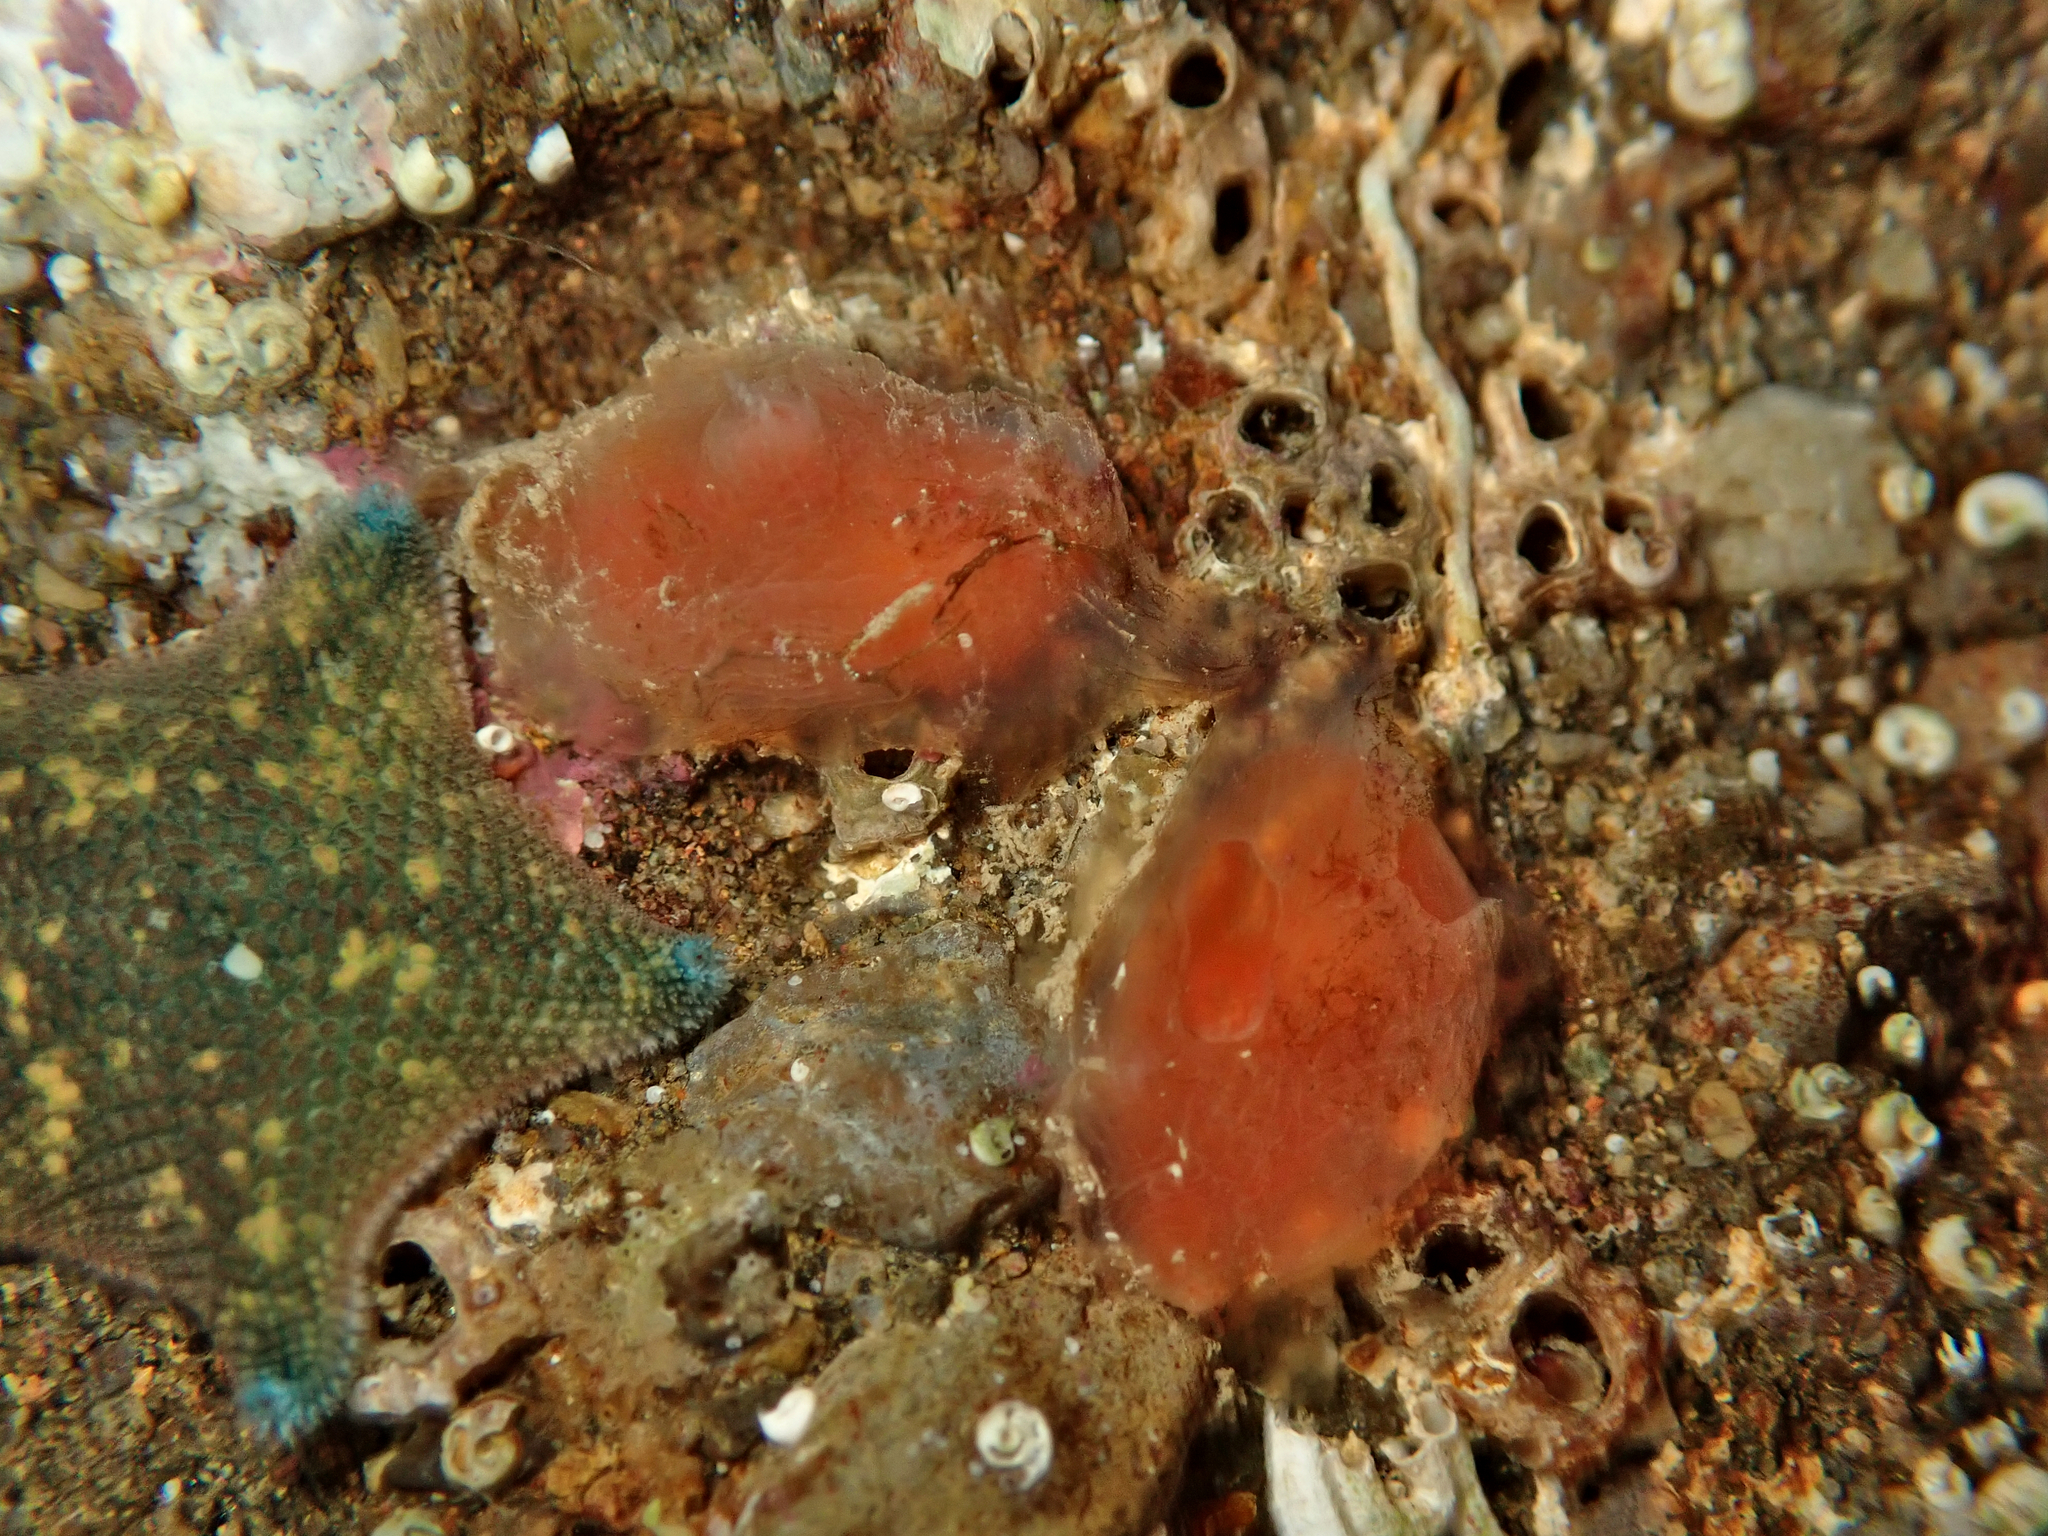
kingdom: Animalia
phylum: Chordata
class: Ascidiacea
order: Phlebobranchia
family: Corellidae
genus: Corella
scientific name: Corella eumyota
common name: Orange-tipped sea squirt
